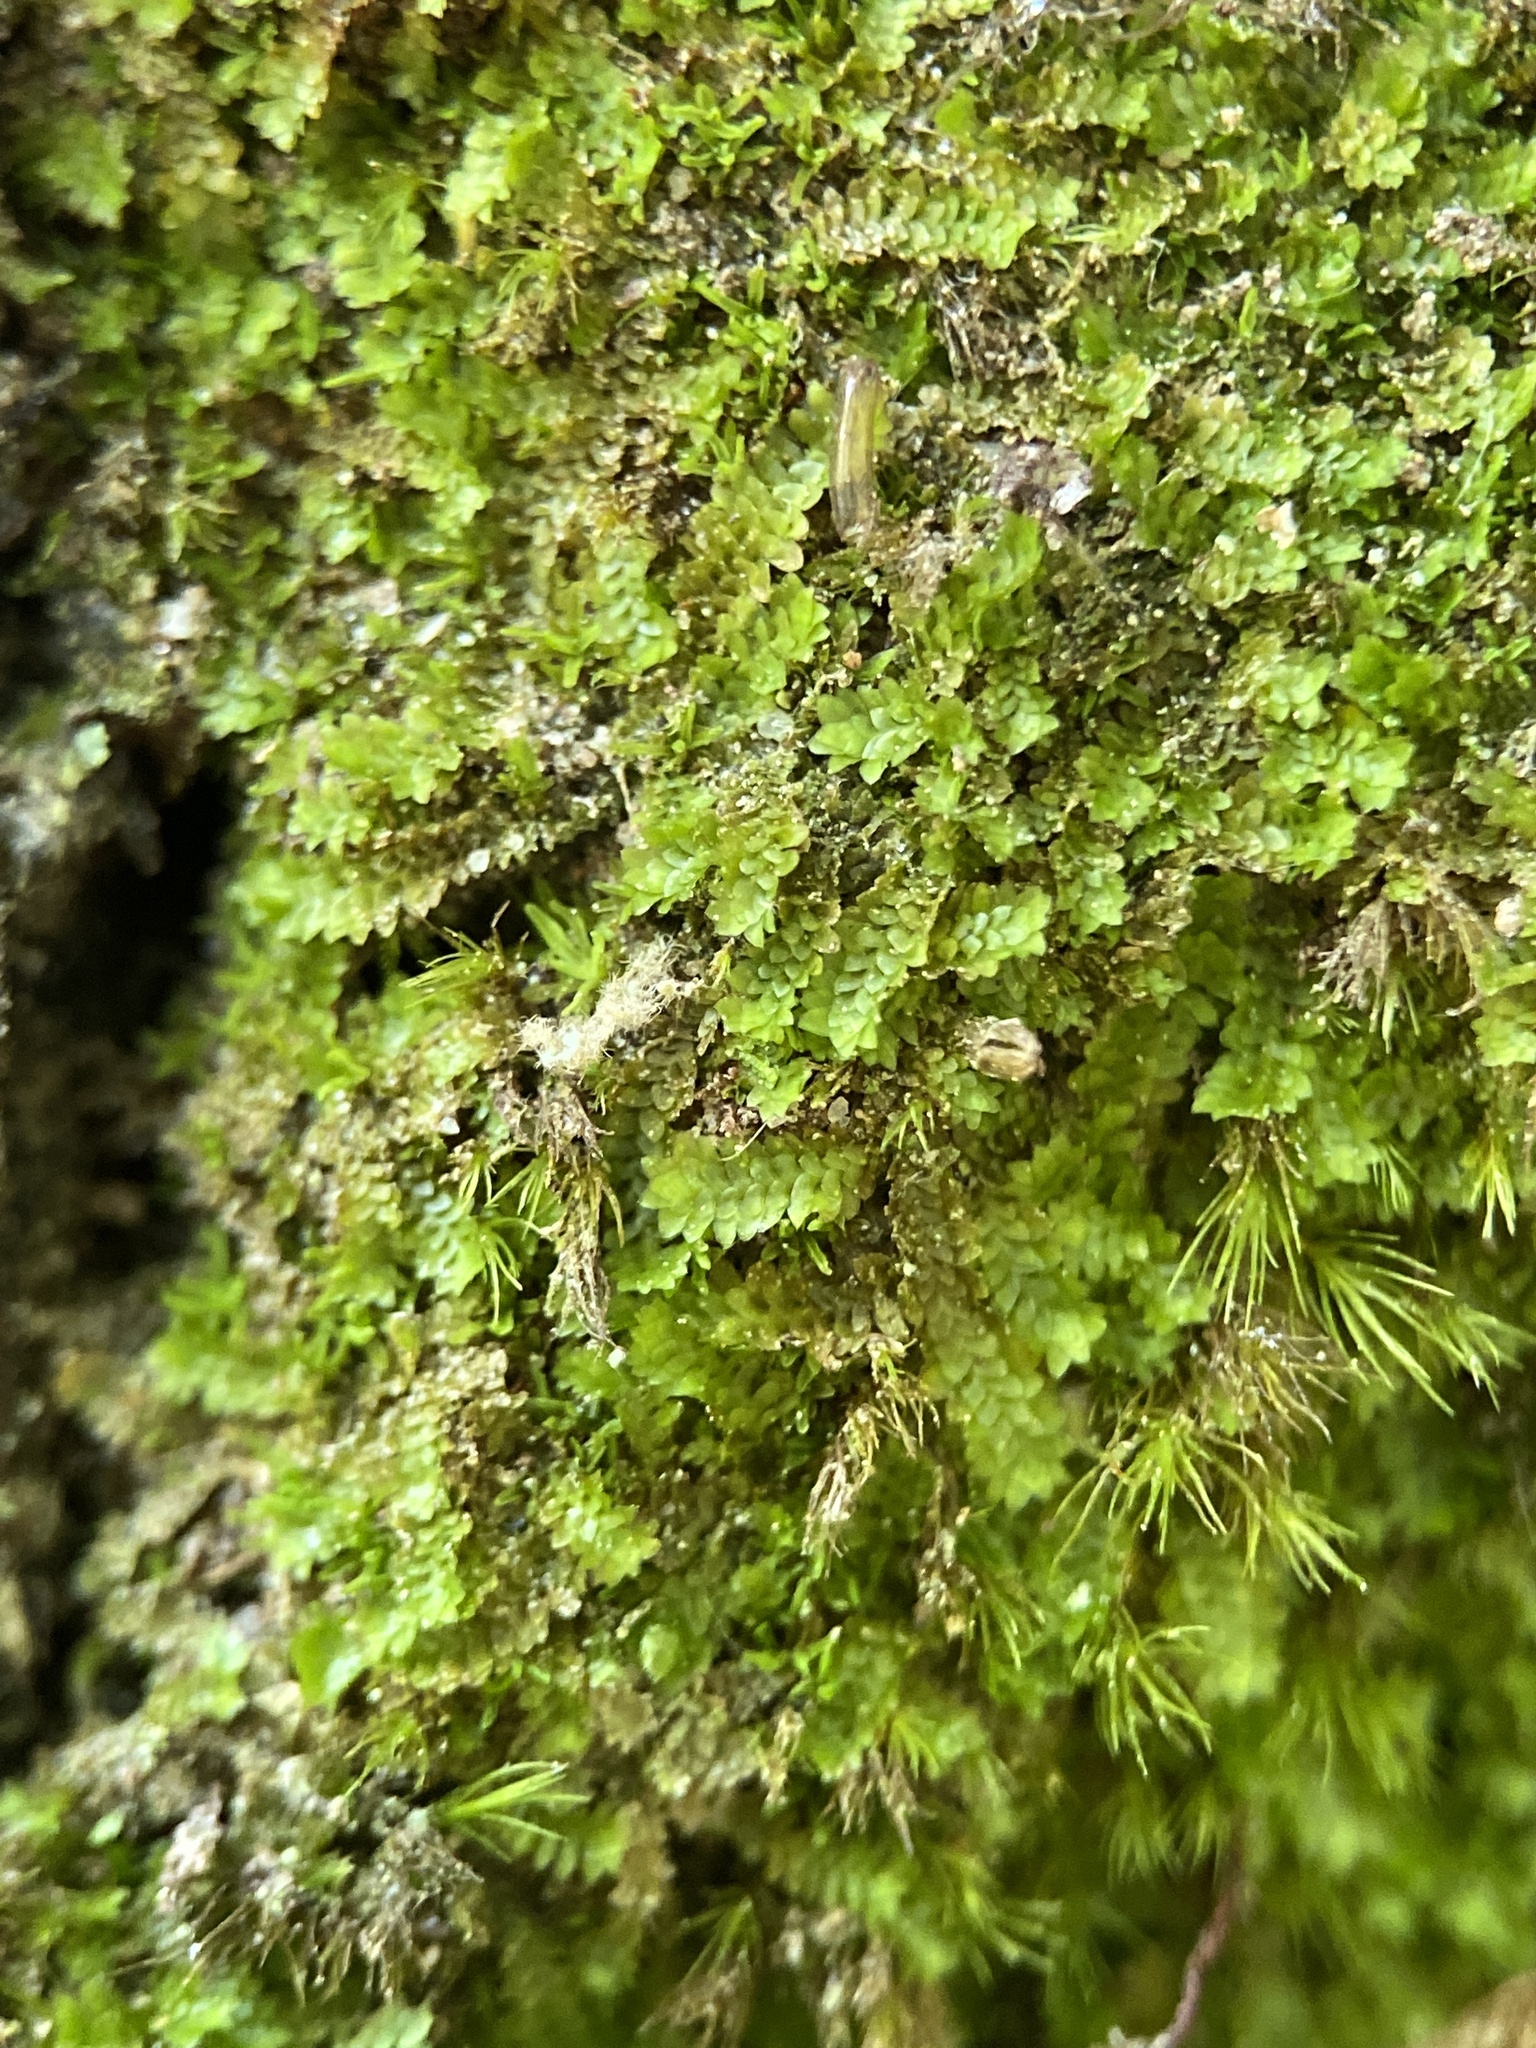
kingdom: Plantae
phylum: Marchantiophyta
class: Jungermanniopsida
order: Jungermanniales
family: Scapaniaceae
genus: Diplophyllum
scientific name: Diplophyllum apiculatum
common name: Sharp-pointed earwort
